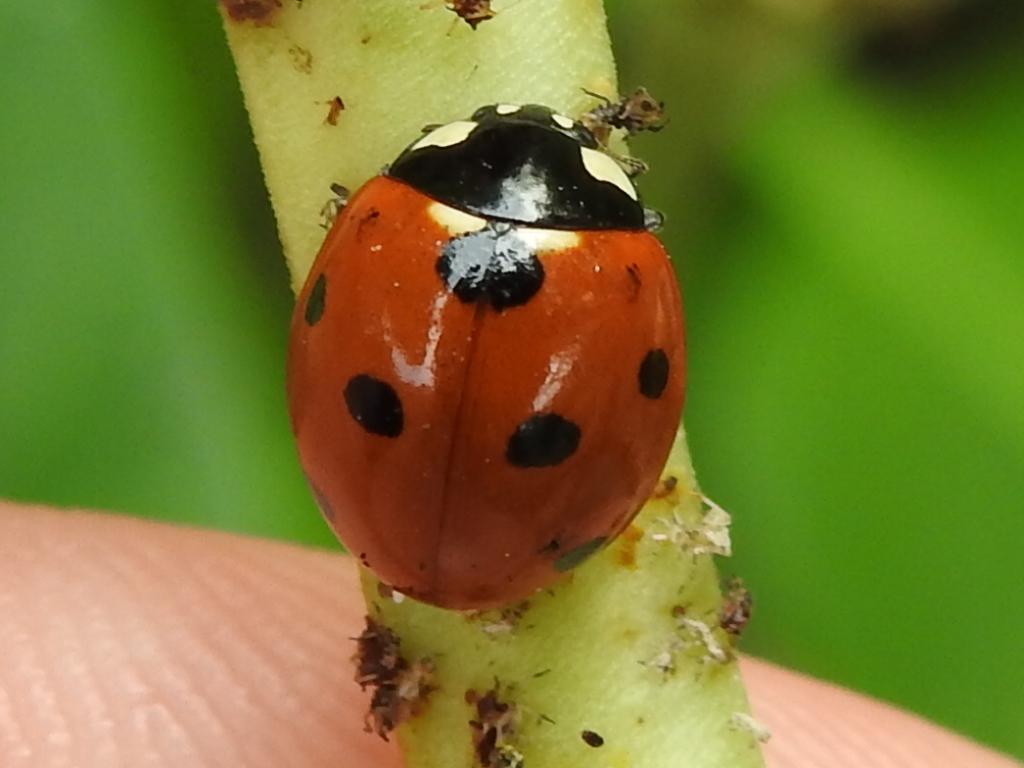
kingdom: Animalia
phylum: Arthropoda
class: Insecta
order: Coleoptera
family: Coccinellidae
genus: Coccinella
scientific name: Coccinella septempunctata
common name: Sevenspotted lady beetle
